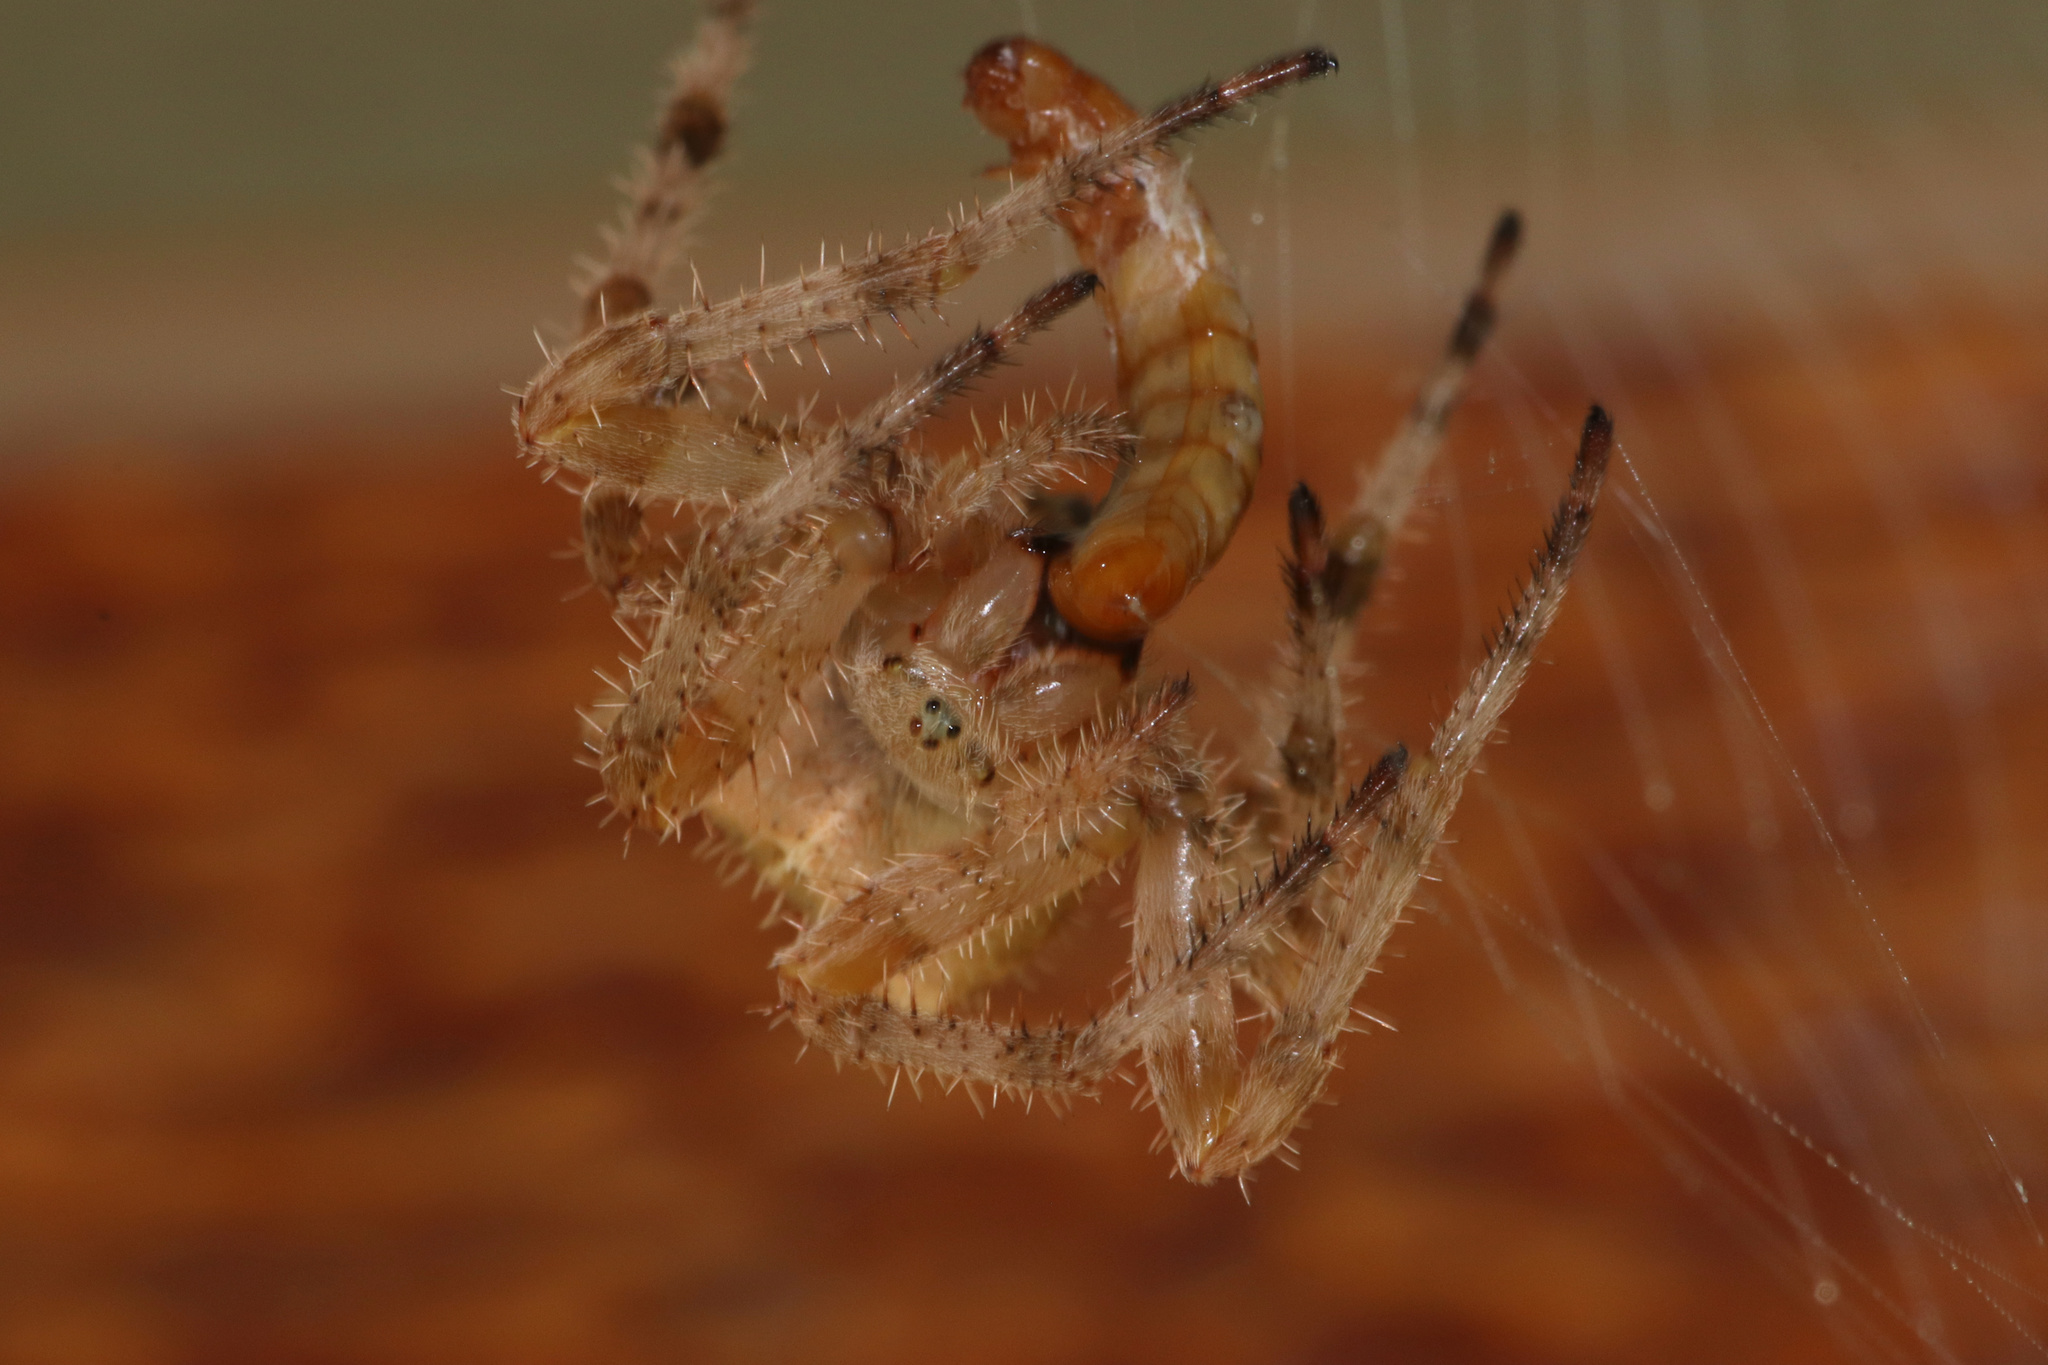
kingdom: Animalia
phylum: Arthropoda
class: Arachnida
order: Araneae
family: Araneidae
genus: Araneus
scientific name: Araneus gemmoides
